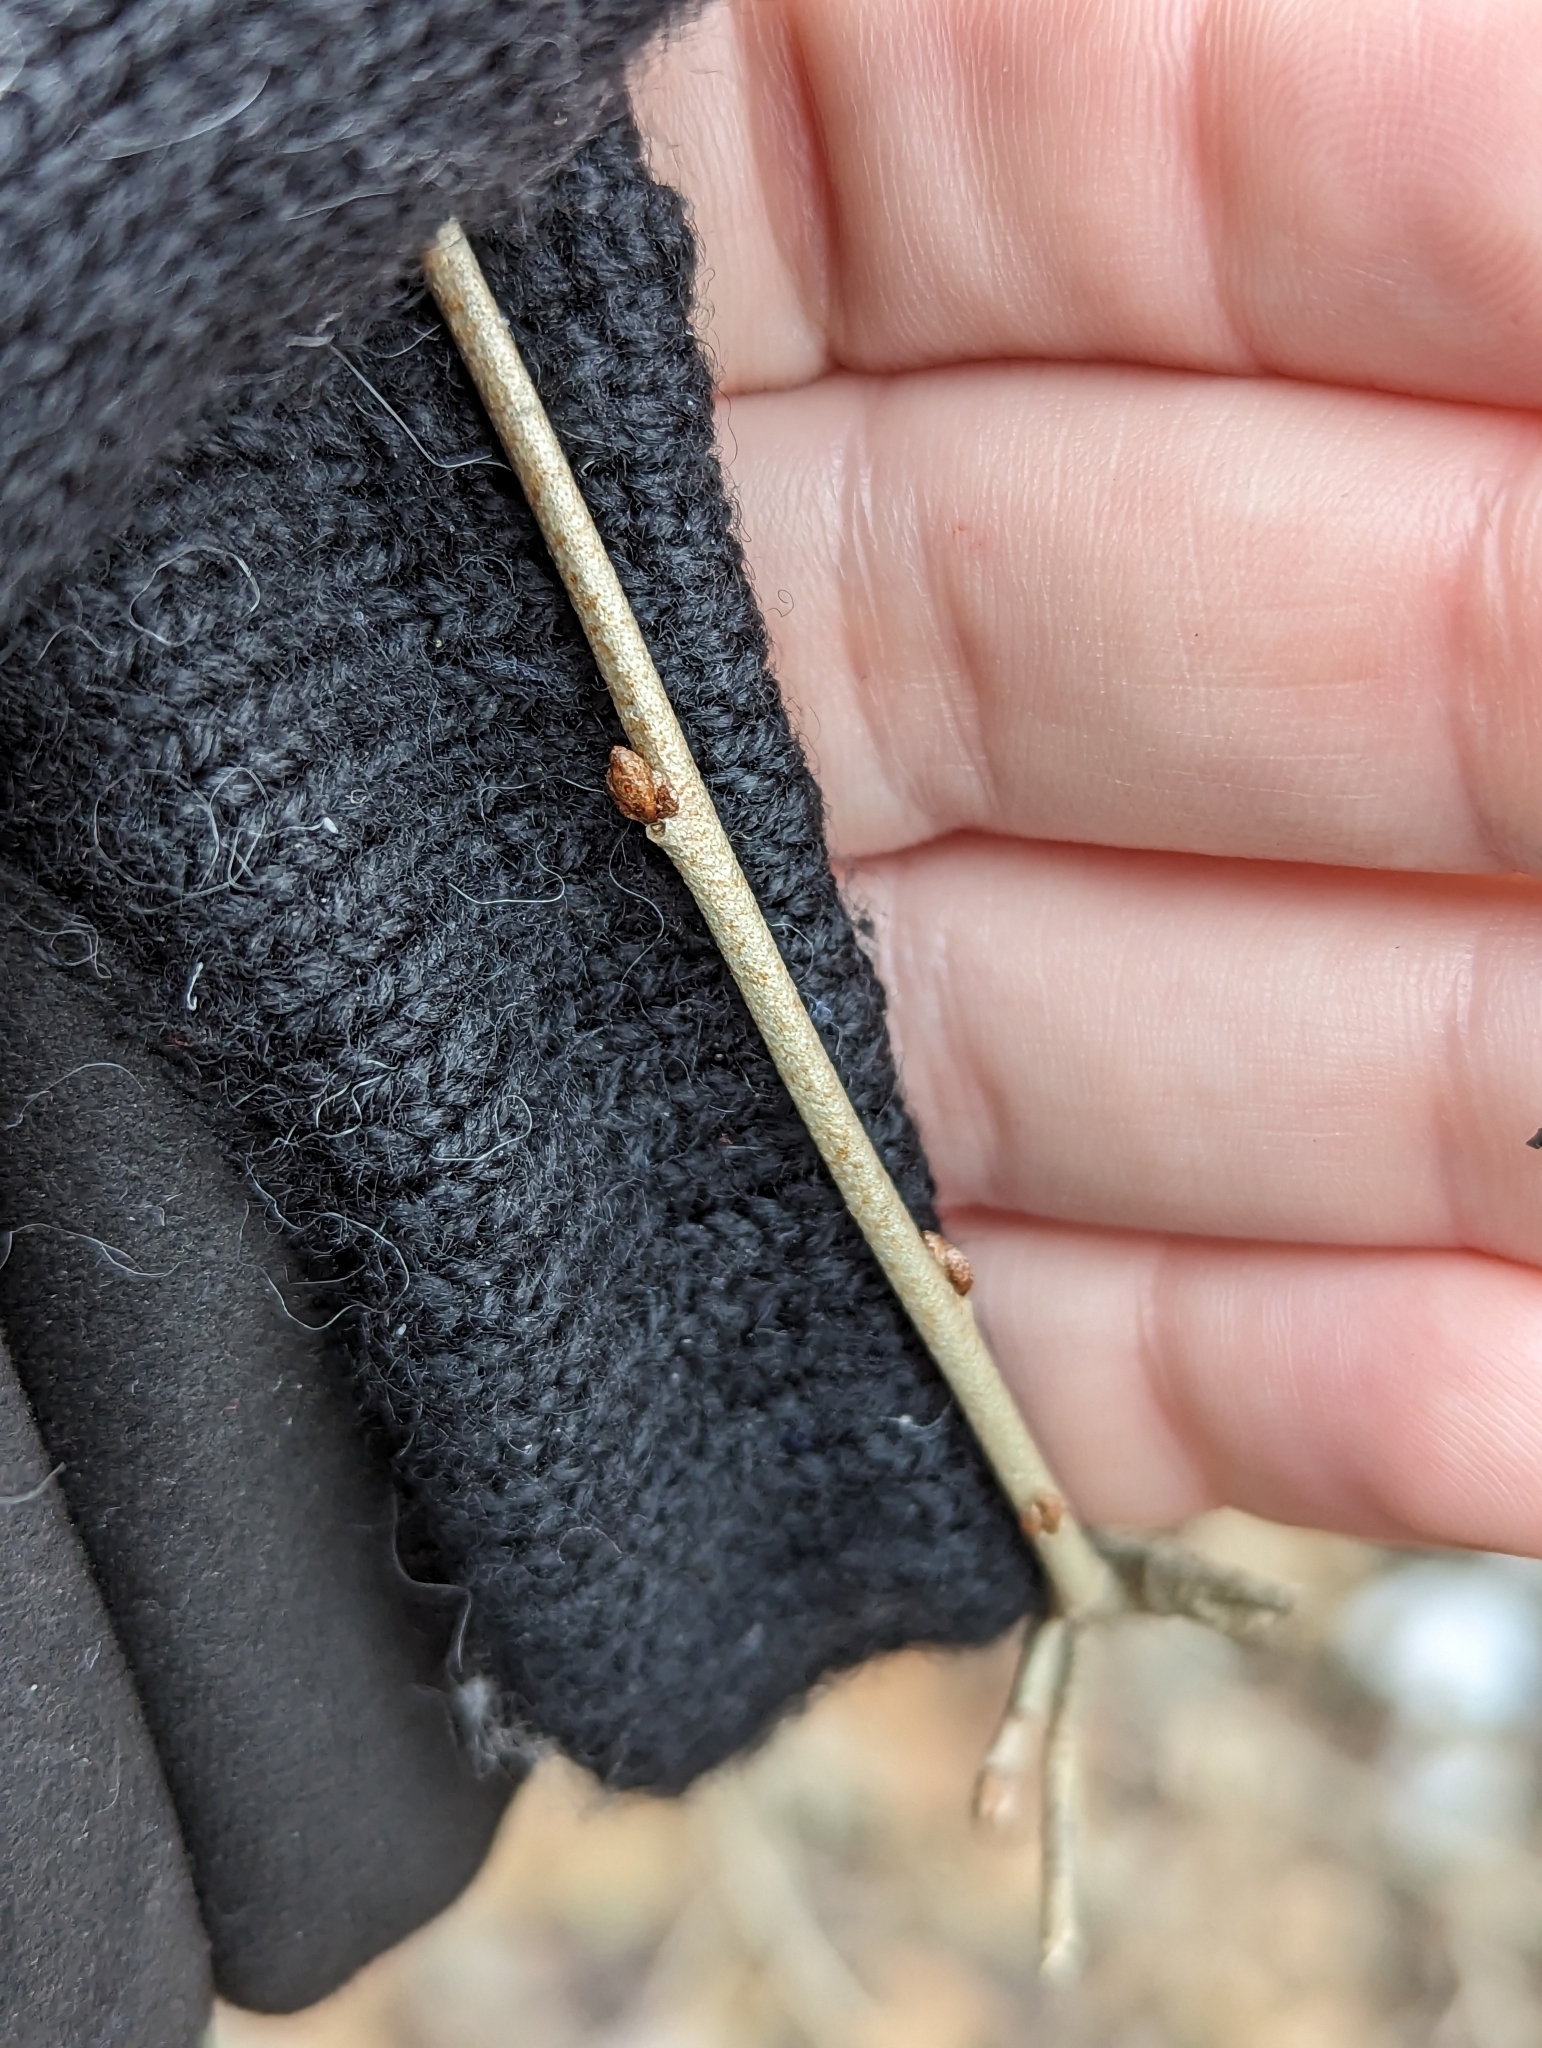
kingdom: Plantae
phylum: Tracheophyta
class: Magnoliopsida
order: Rosales
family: Elaeagnaceae
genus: Elaeagnus
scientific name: Elaeagnus umbellata
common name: Autumn olive
